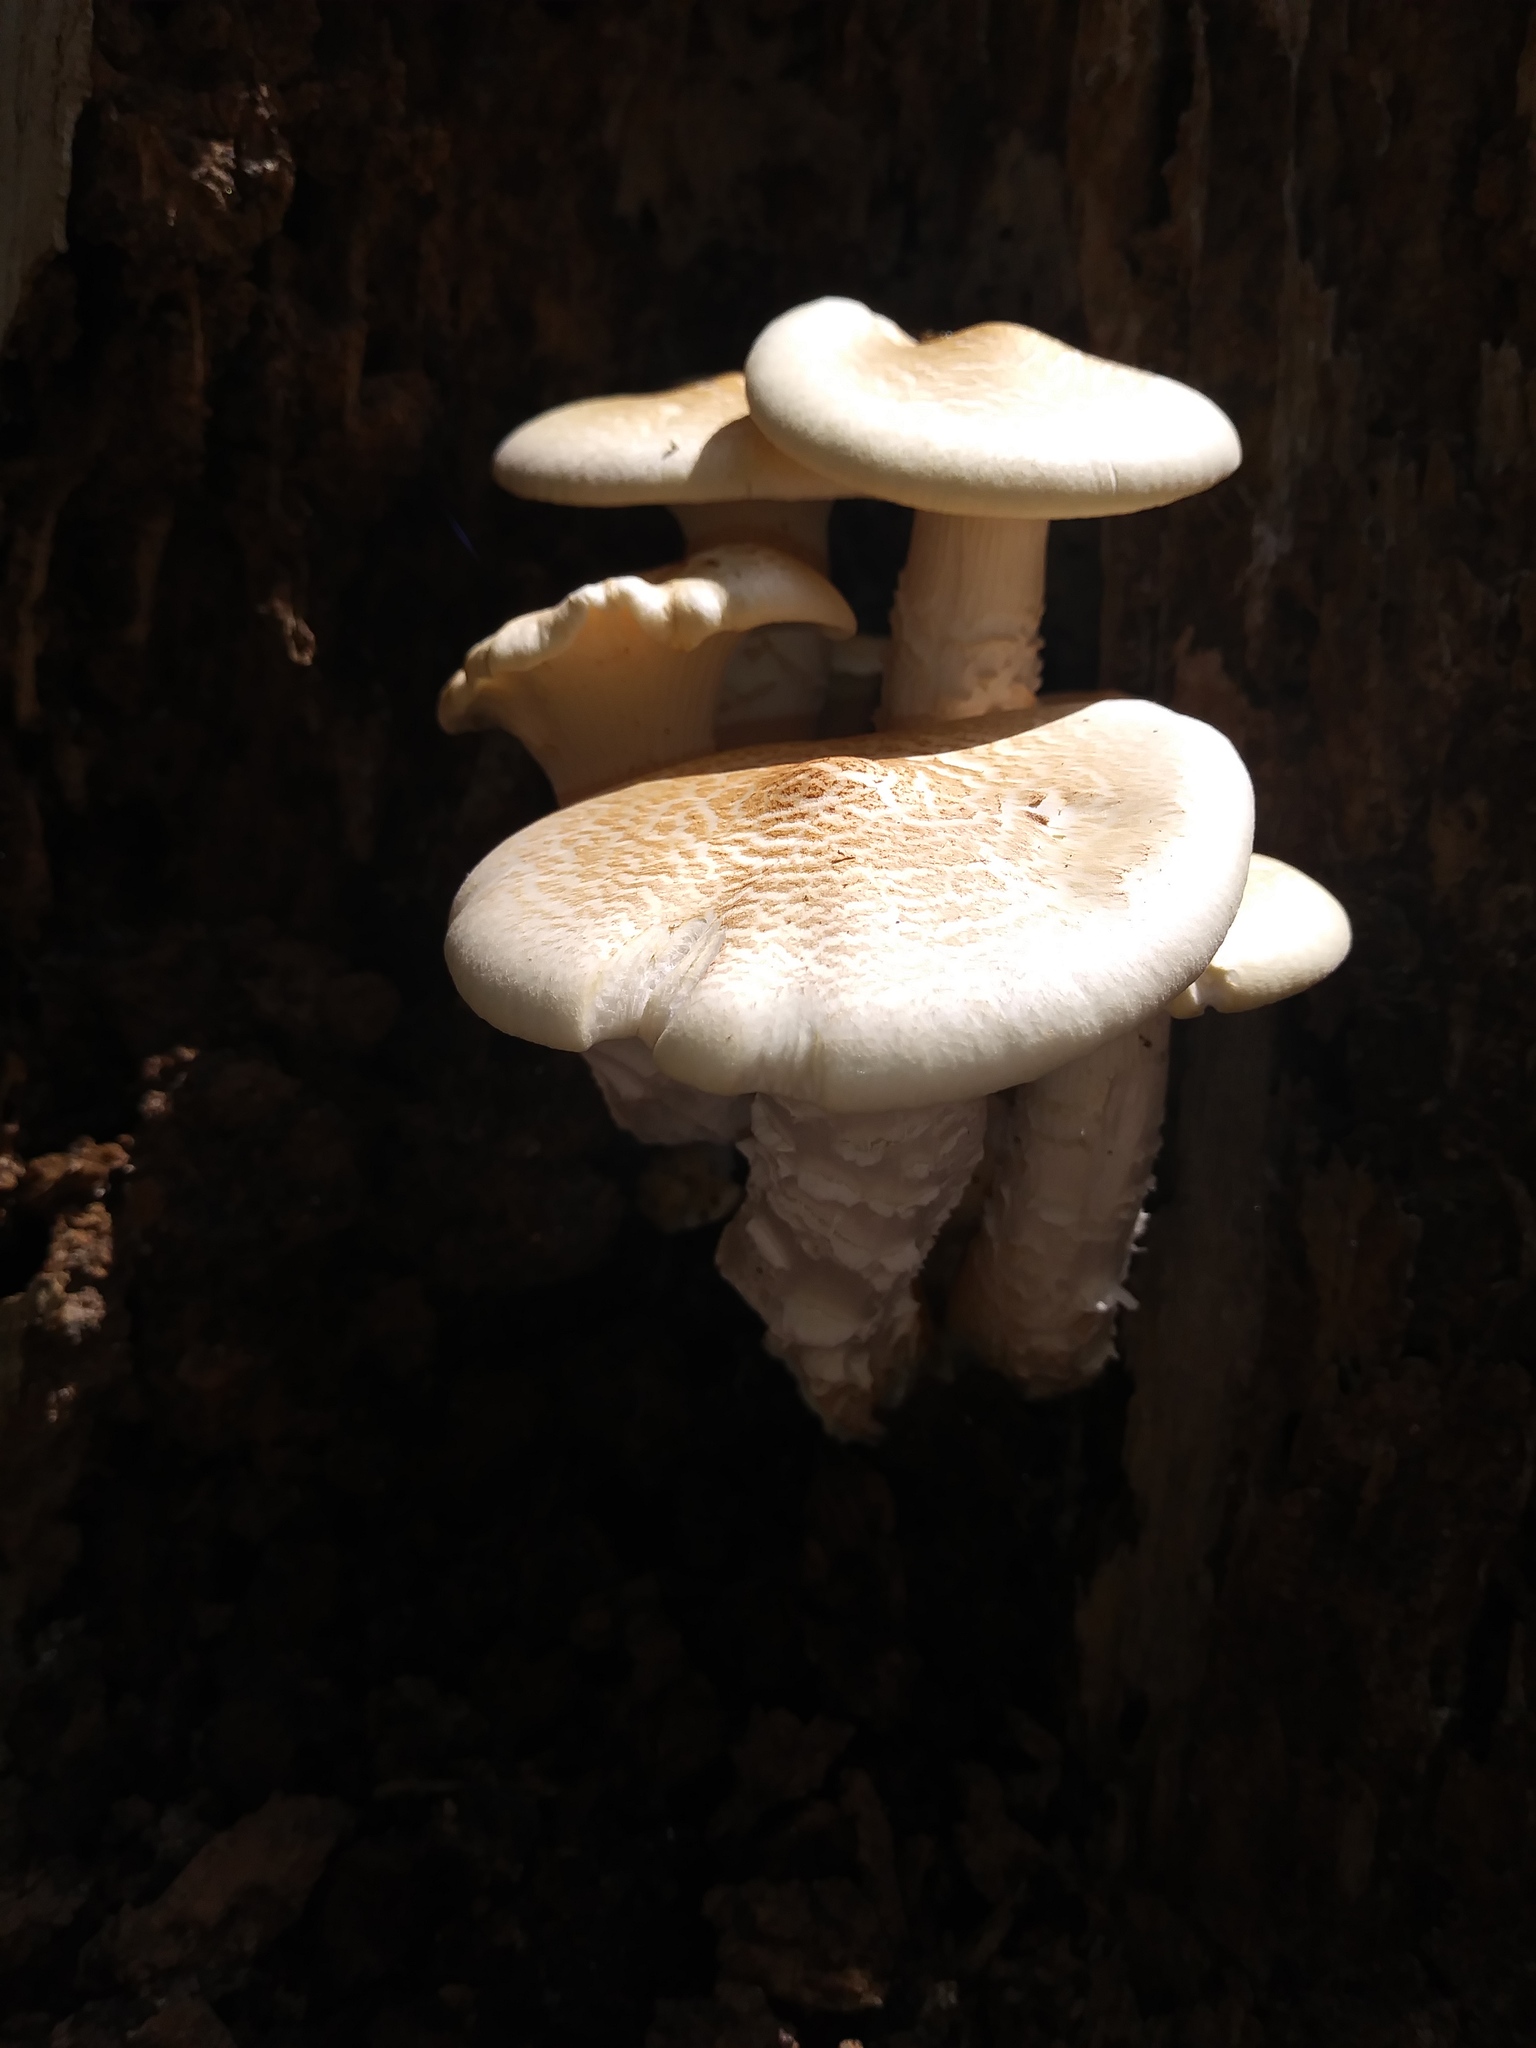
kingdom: Fungi
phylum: Basidiomycota
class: Agaricomycetes
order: Gloeophyllales
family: Gloeophyllaceae
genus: Neolentinus
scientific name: Neolentinus lepideus
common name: Scaly sawgill
